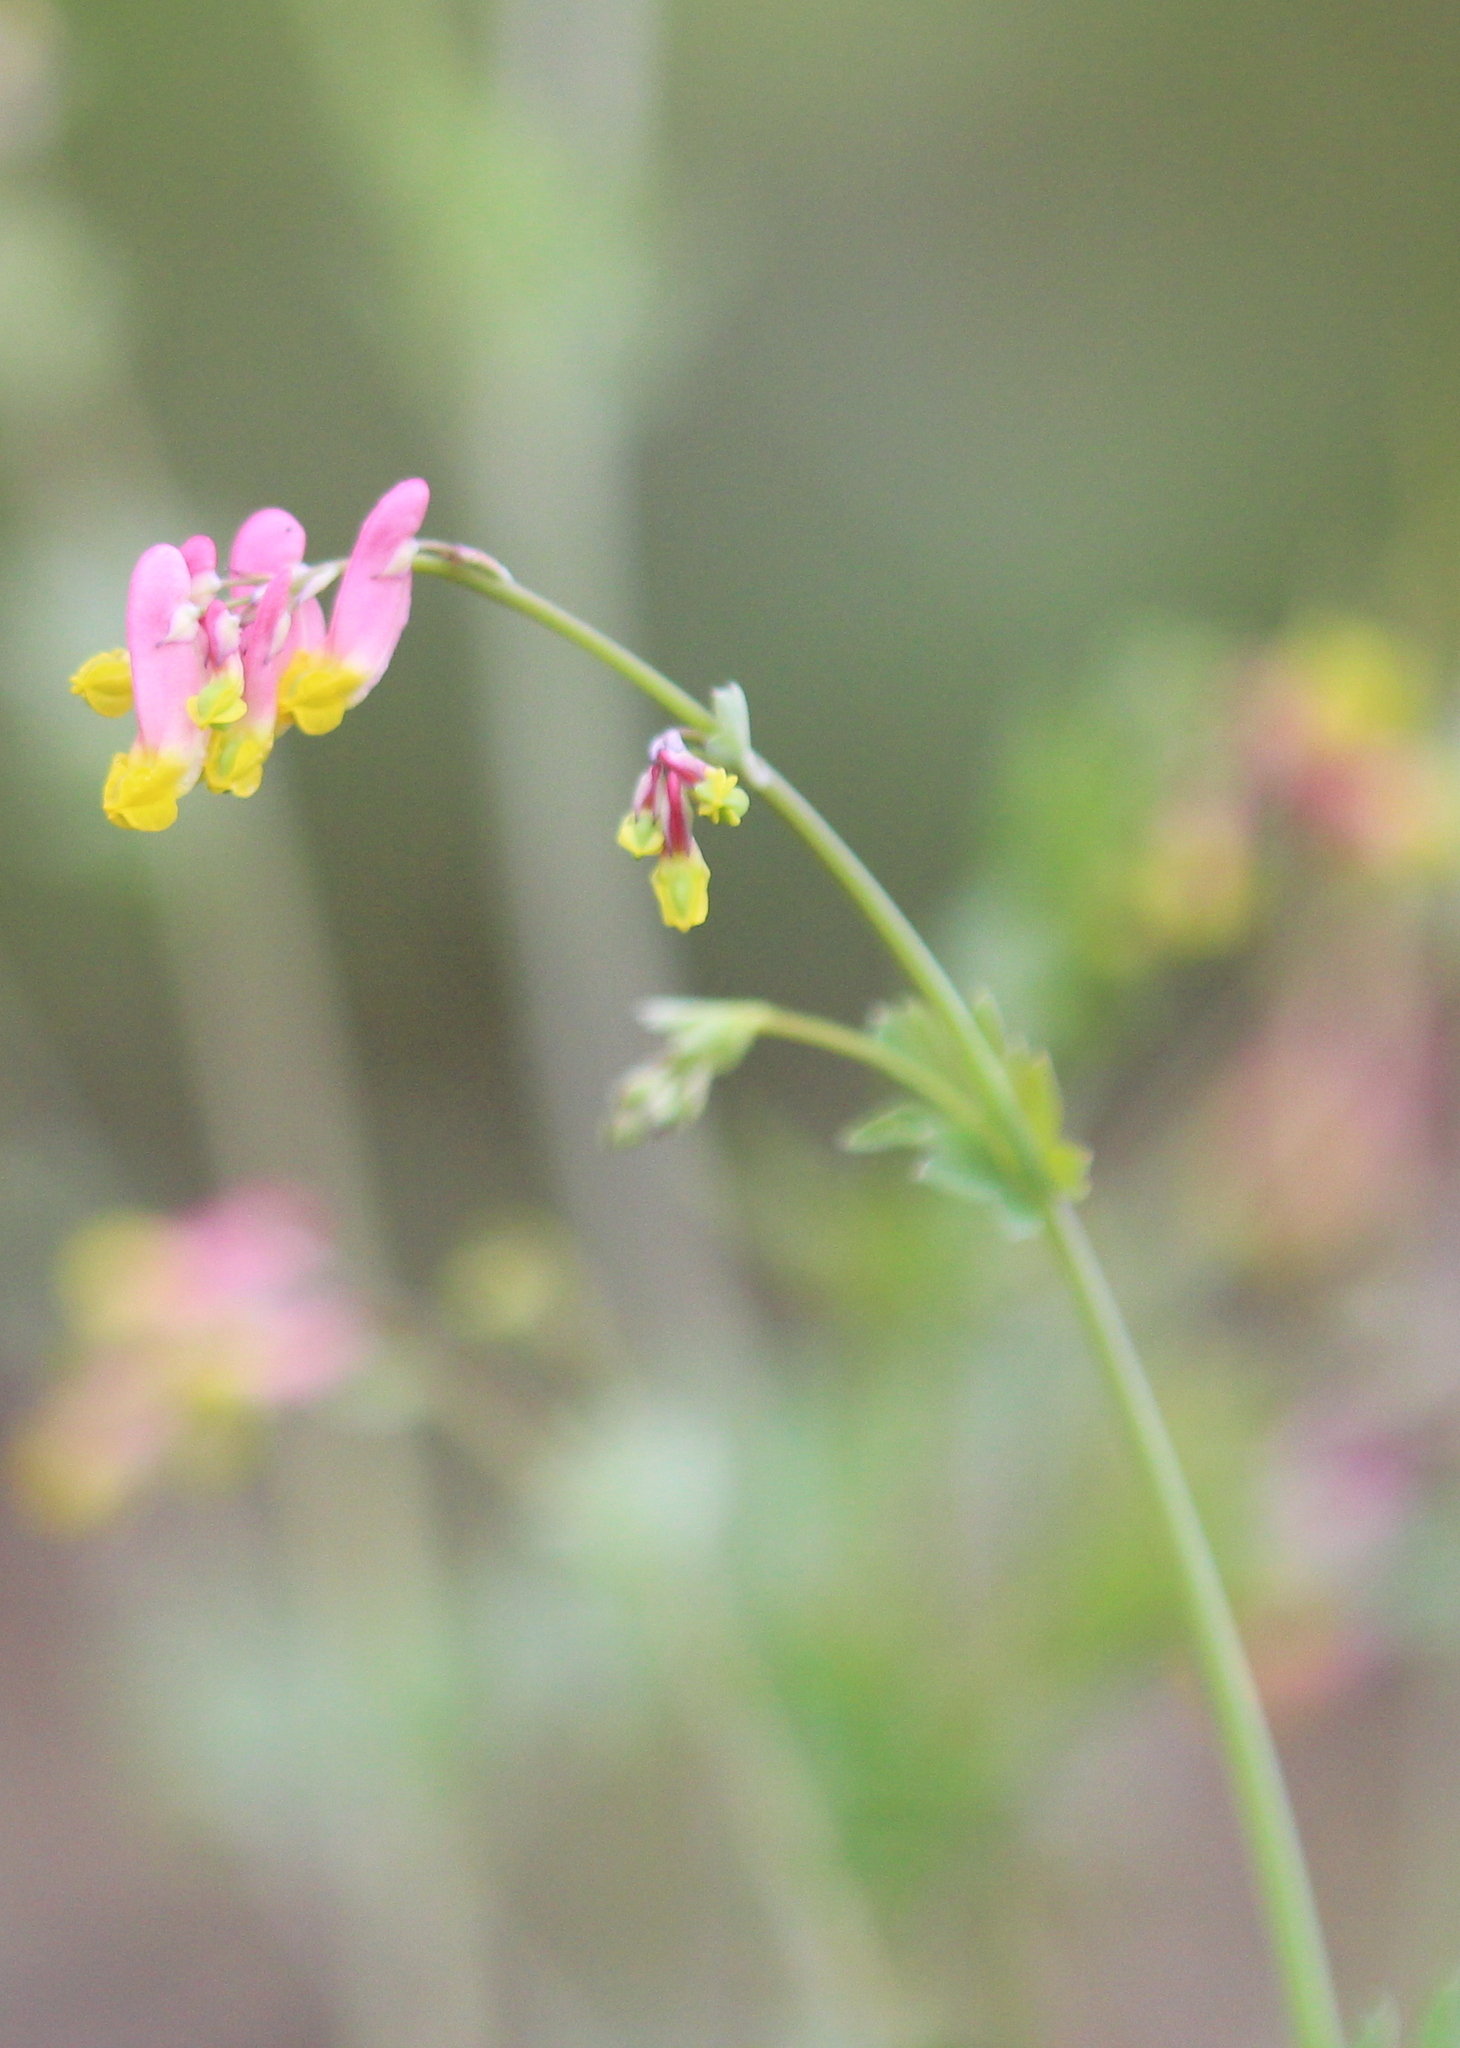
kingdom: Plantae
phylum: Tracheophyta
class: Magnoliopsida
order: Ranunculales
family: Papaveraceae
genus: Capnoides
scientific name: Capnoides sempervirens
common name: Rock harlequin
